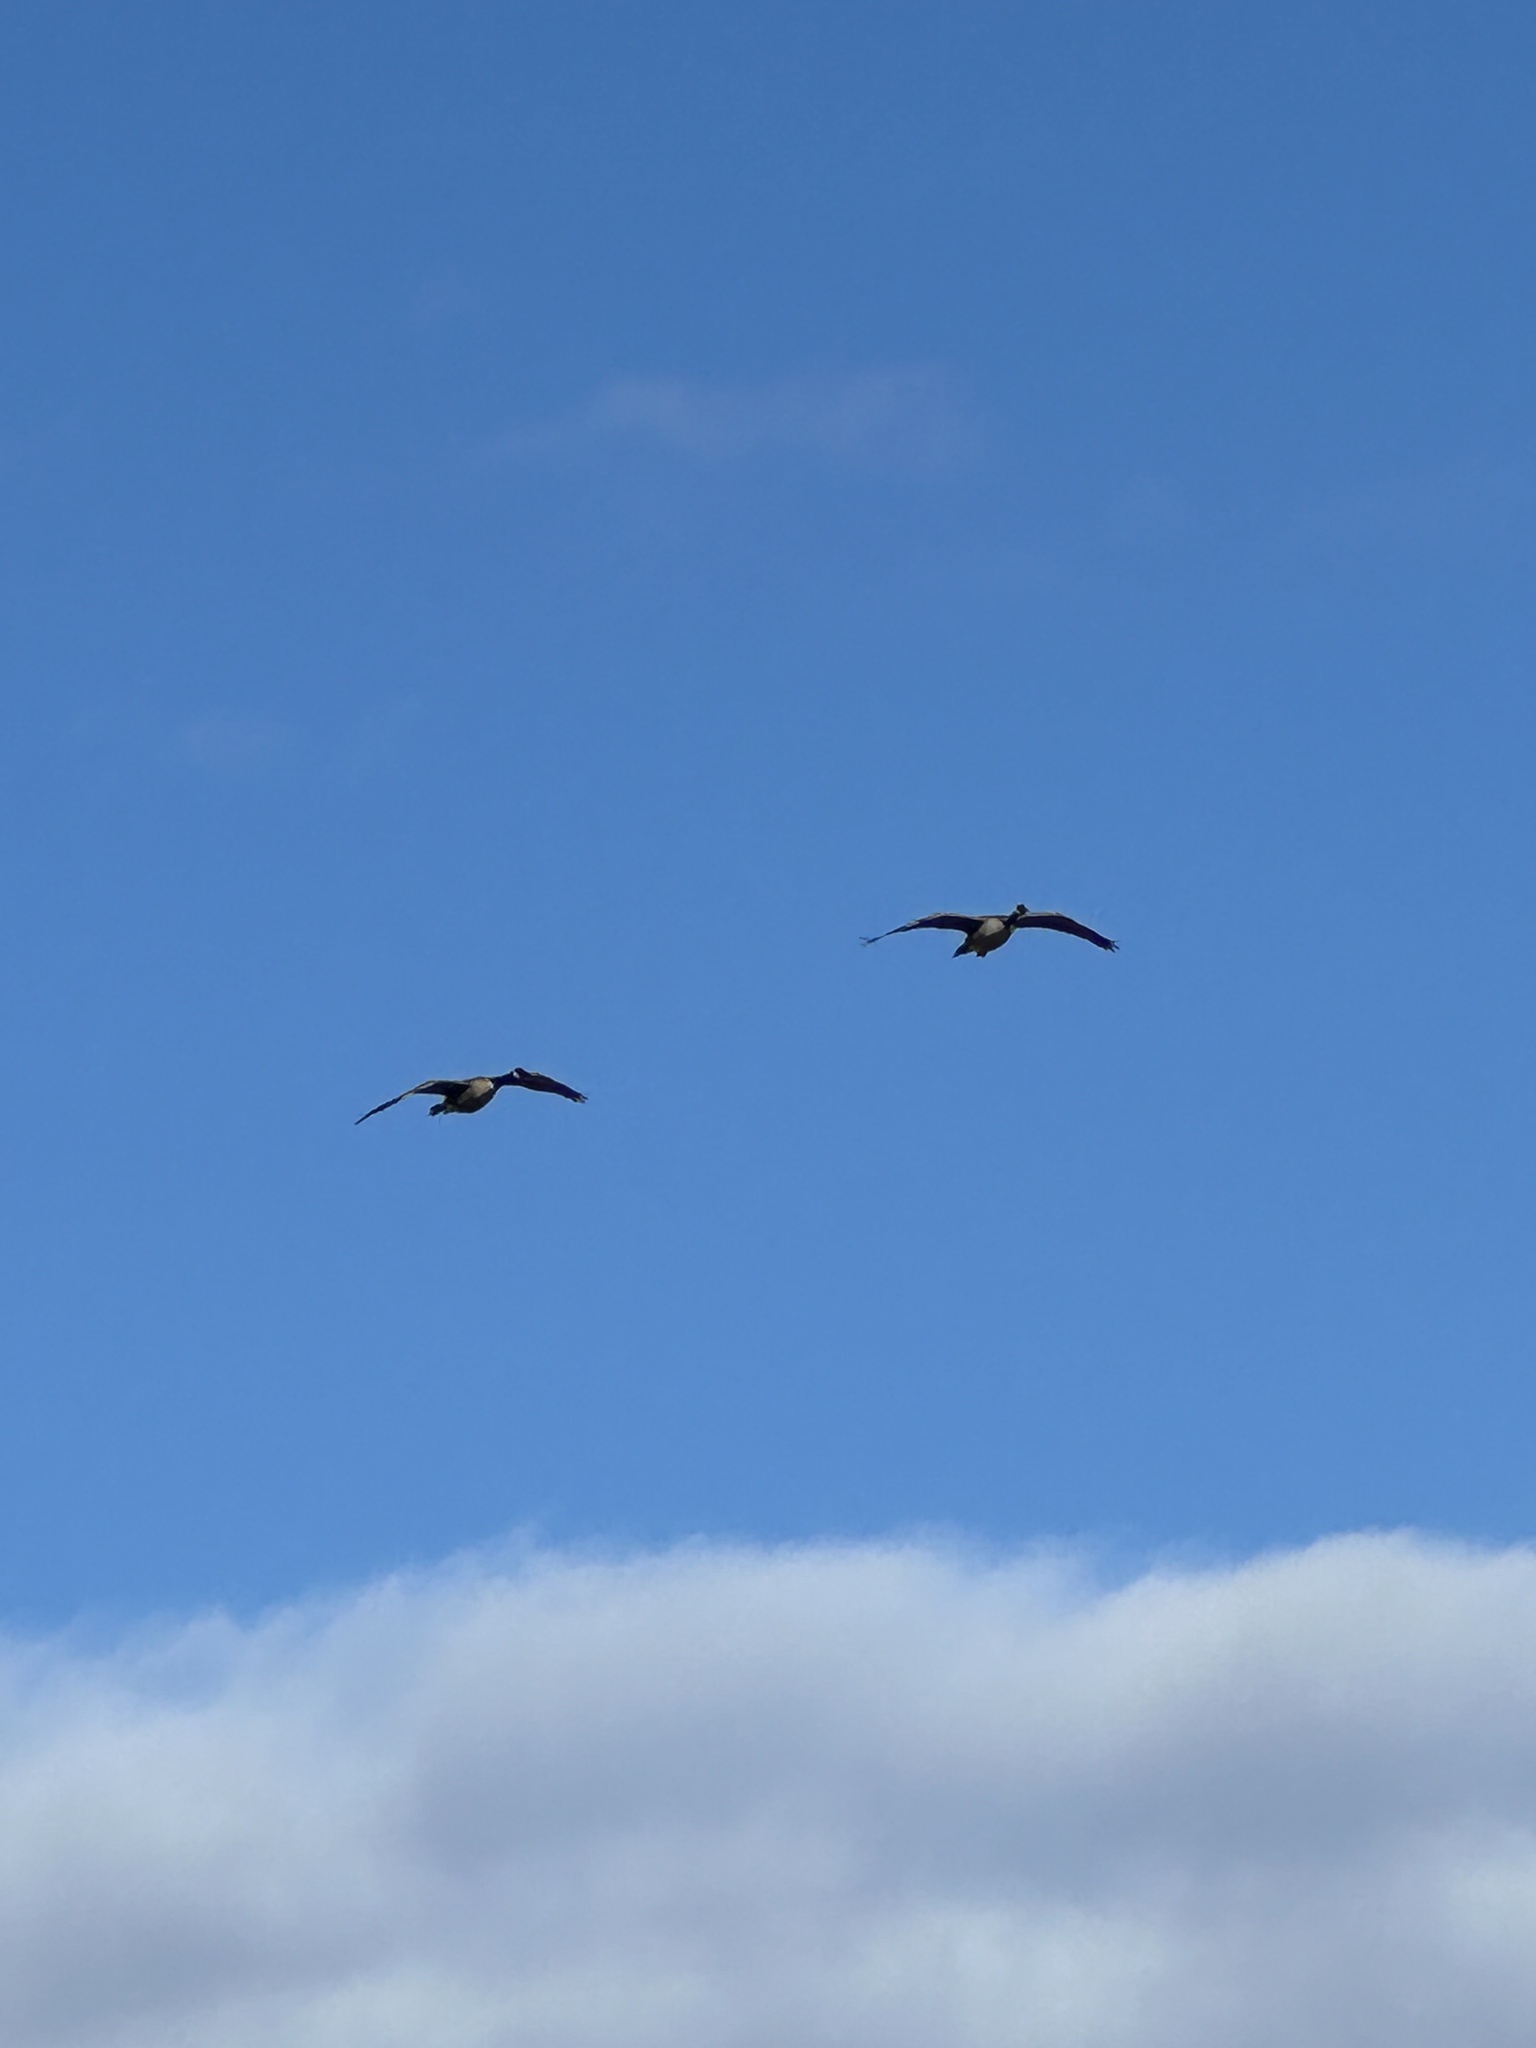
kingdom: Animalia
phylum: Chordata
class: Aves
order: Anseriformes
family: Anatidae
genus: Branta
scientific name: Branta canadensis
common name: Canada goose
